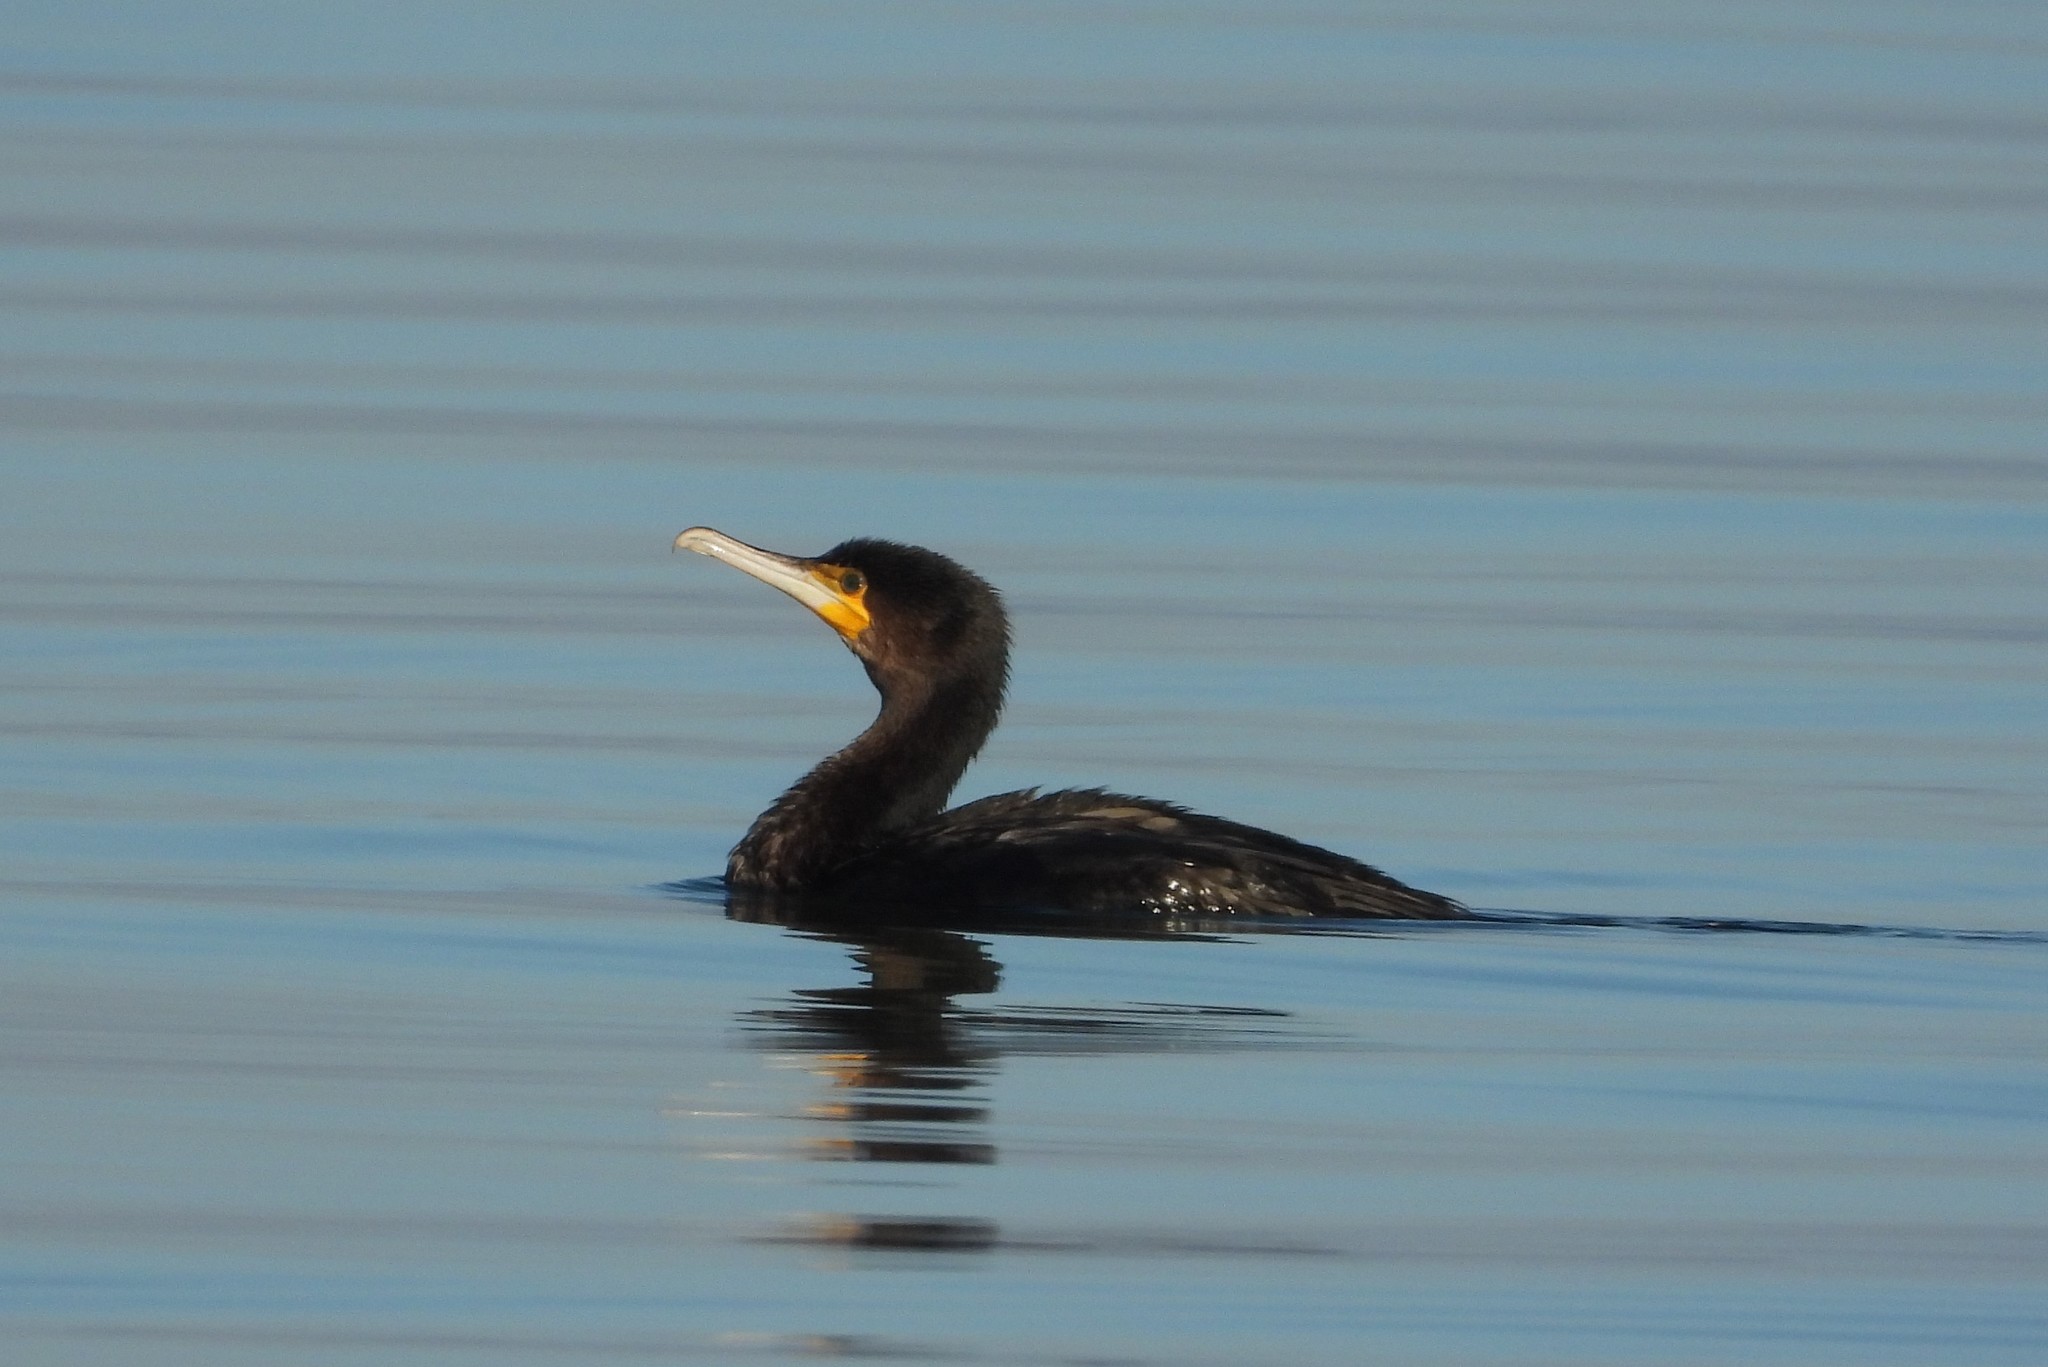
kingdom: Animalia
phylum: Chordata
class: Aves
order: Suliformes
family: Phalacrocoracidae
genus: Phalacrocorax
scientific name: Phalacrocorax carbo
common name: Great cormorant
